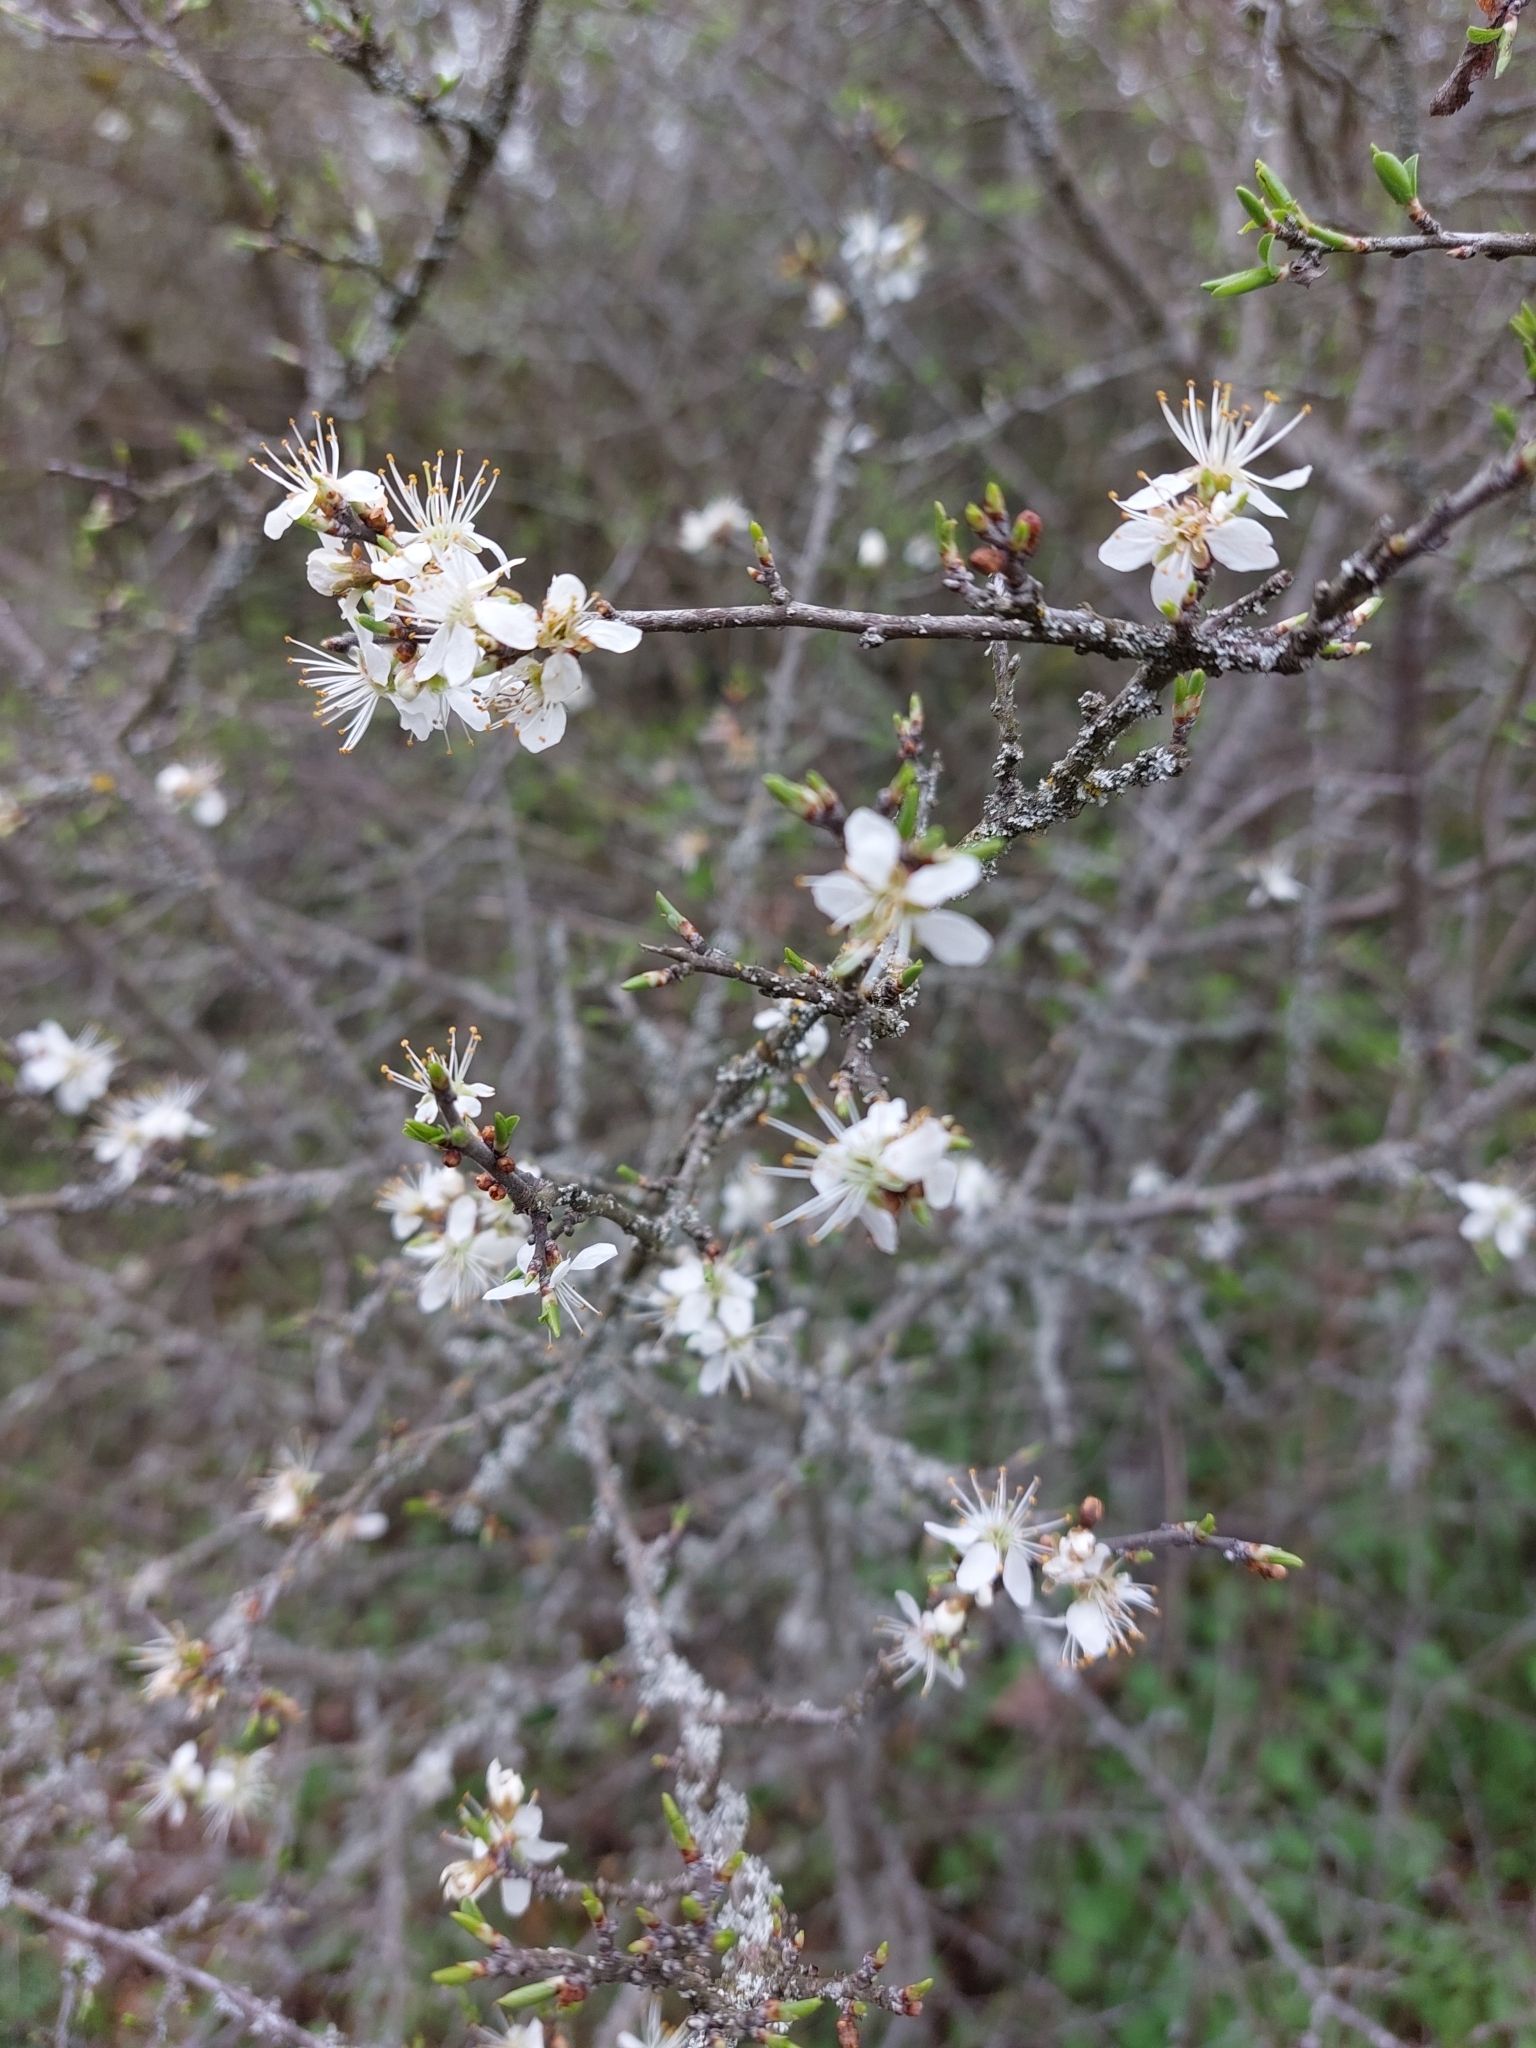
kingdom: Plantae
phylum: Tracheophyta
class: Magnoliopsida
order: Rosales
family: Rosaceae
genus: Prunus
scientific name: Prunus spinosa
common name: Blackthorn
